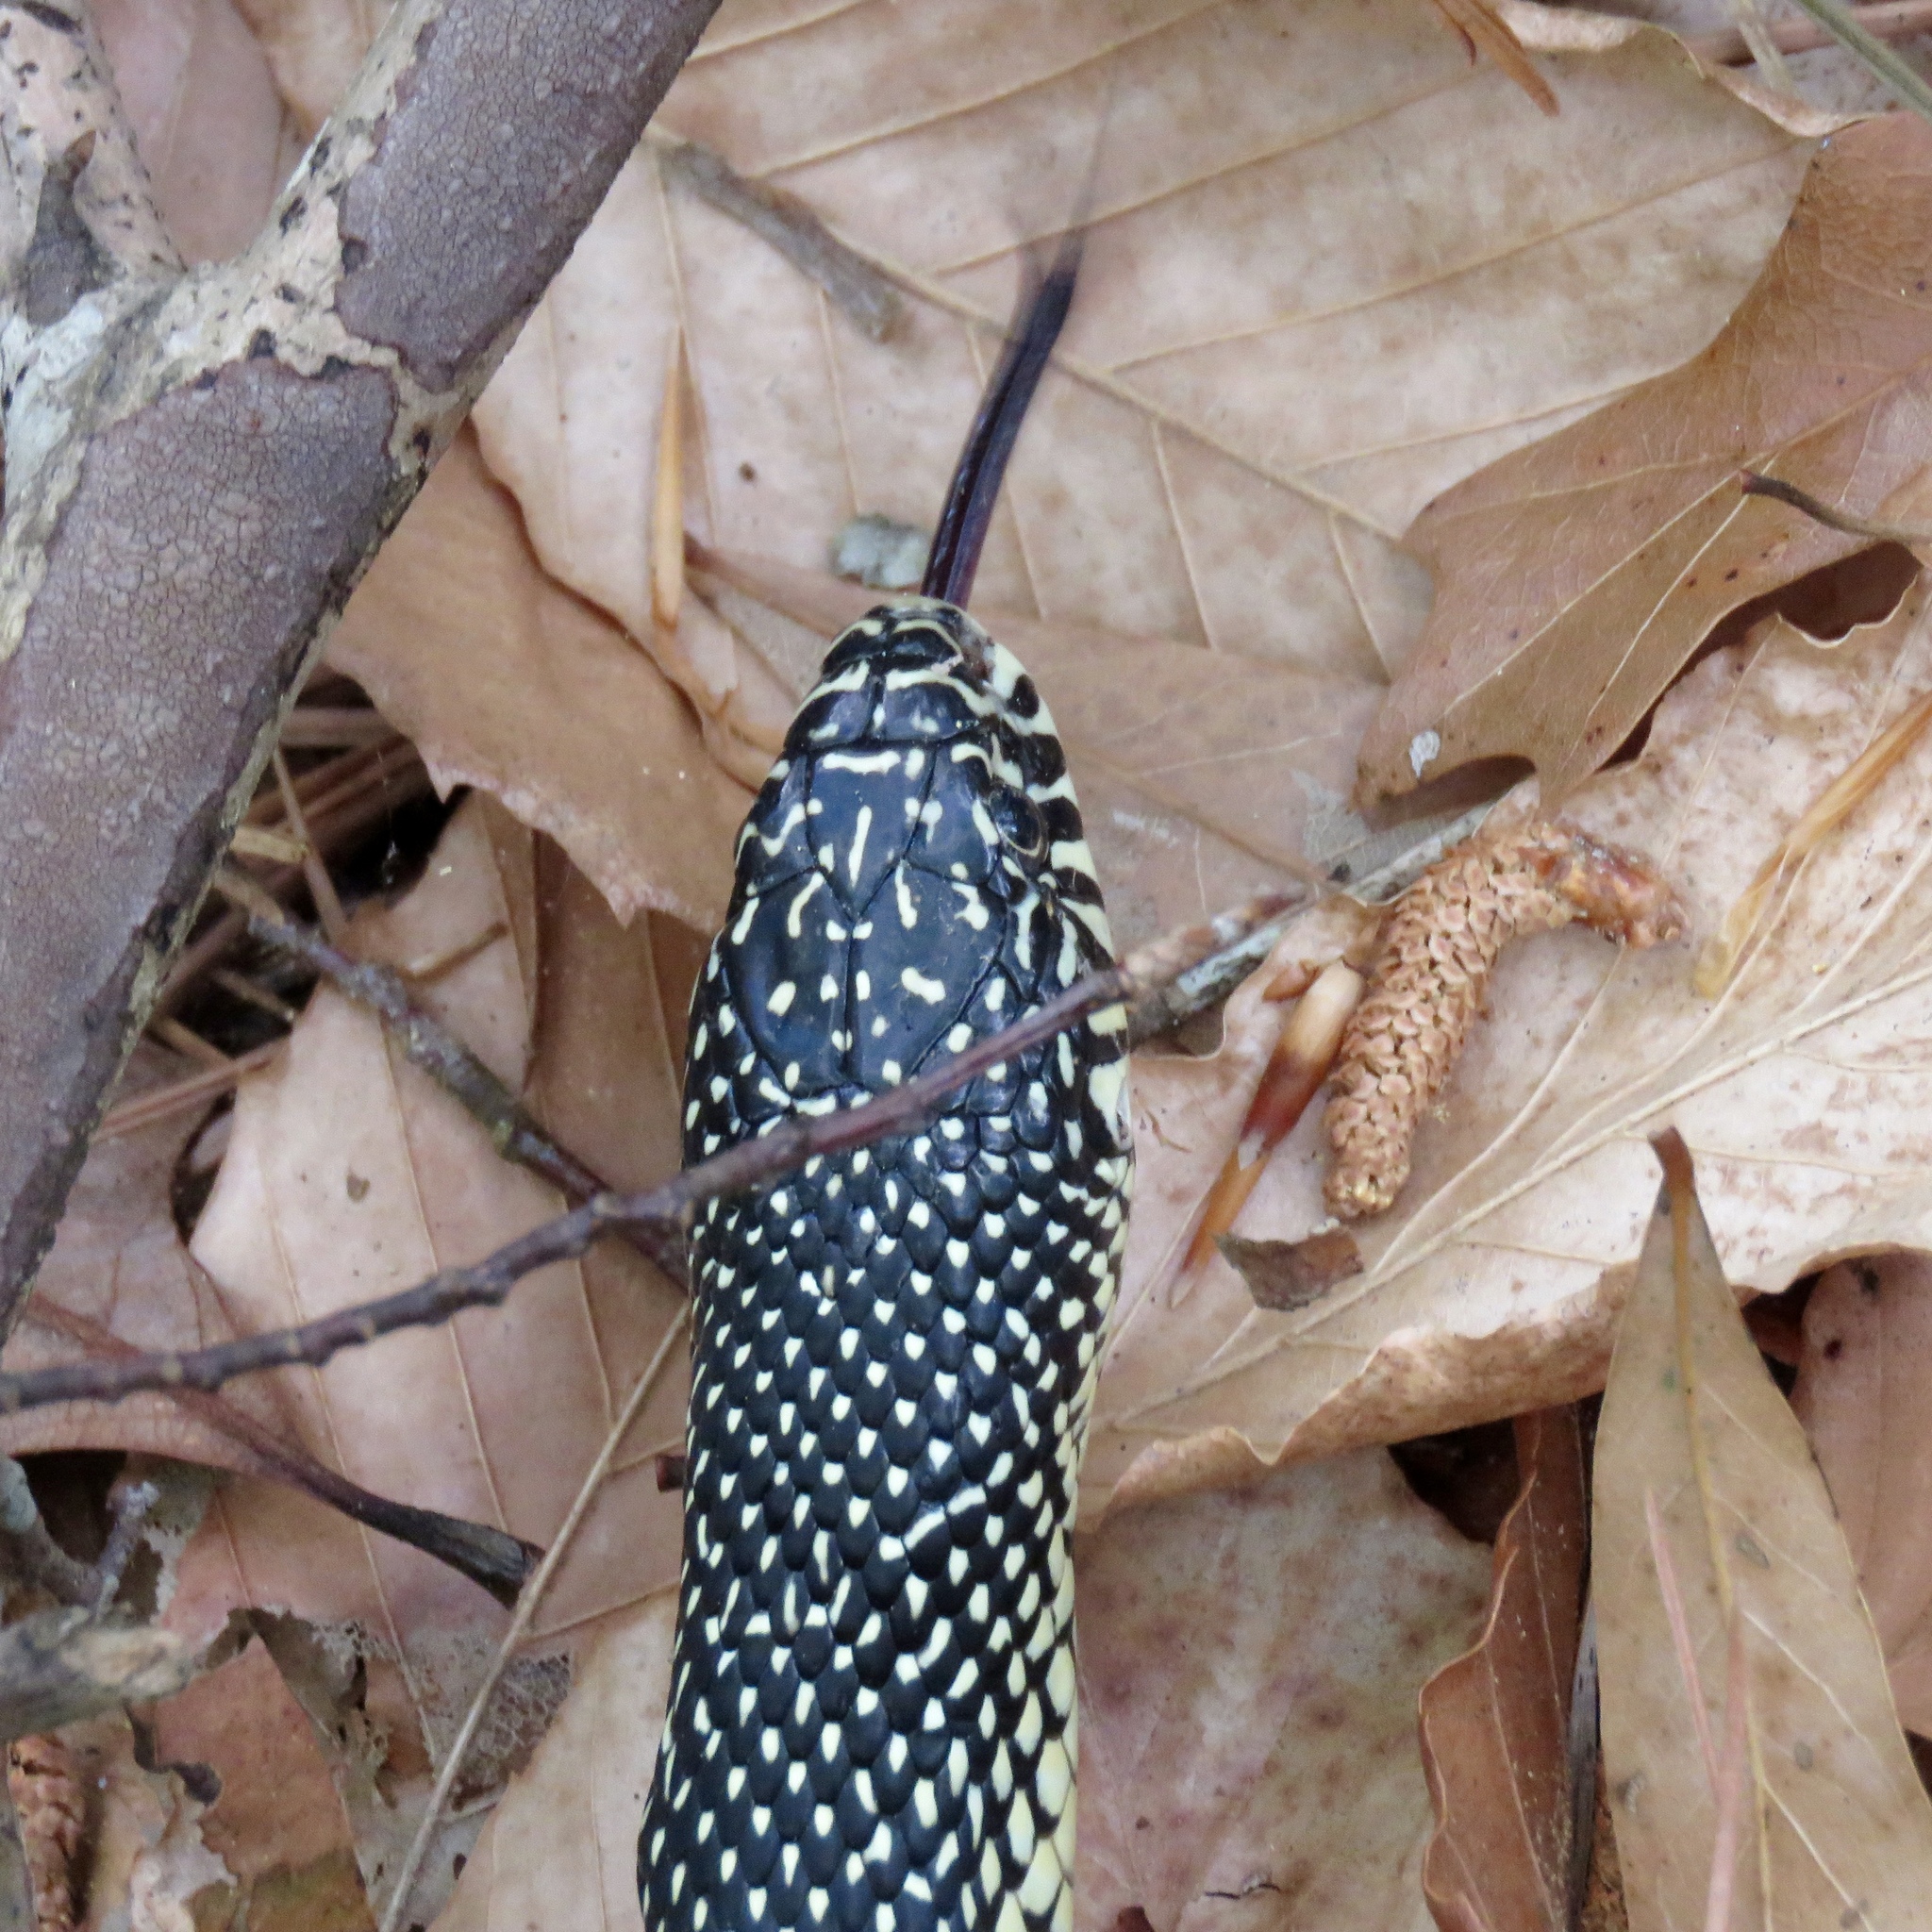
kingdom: Animalia
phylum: Chordata
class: Squamata
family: Colubridae
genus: Lampropeltis
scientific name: Lampropeltis holbrooki
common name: Speckled kingsnake
